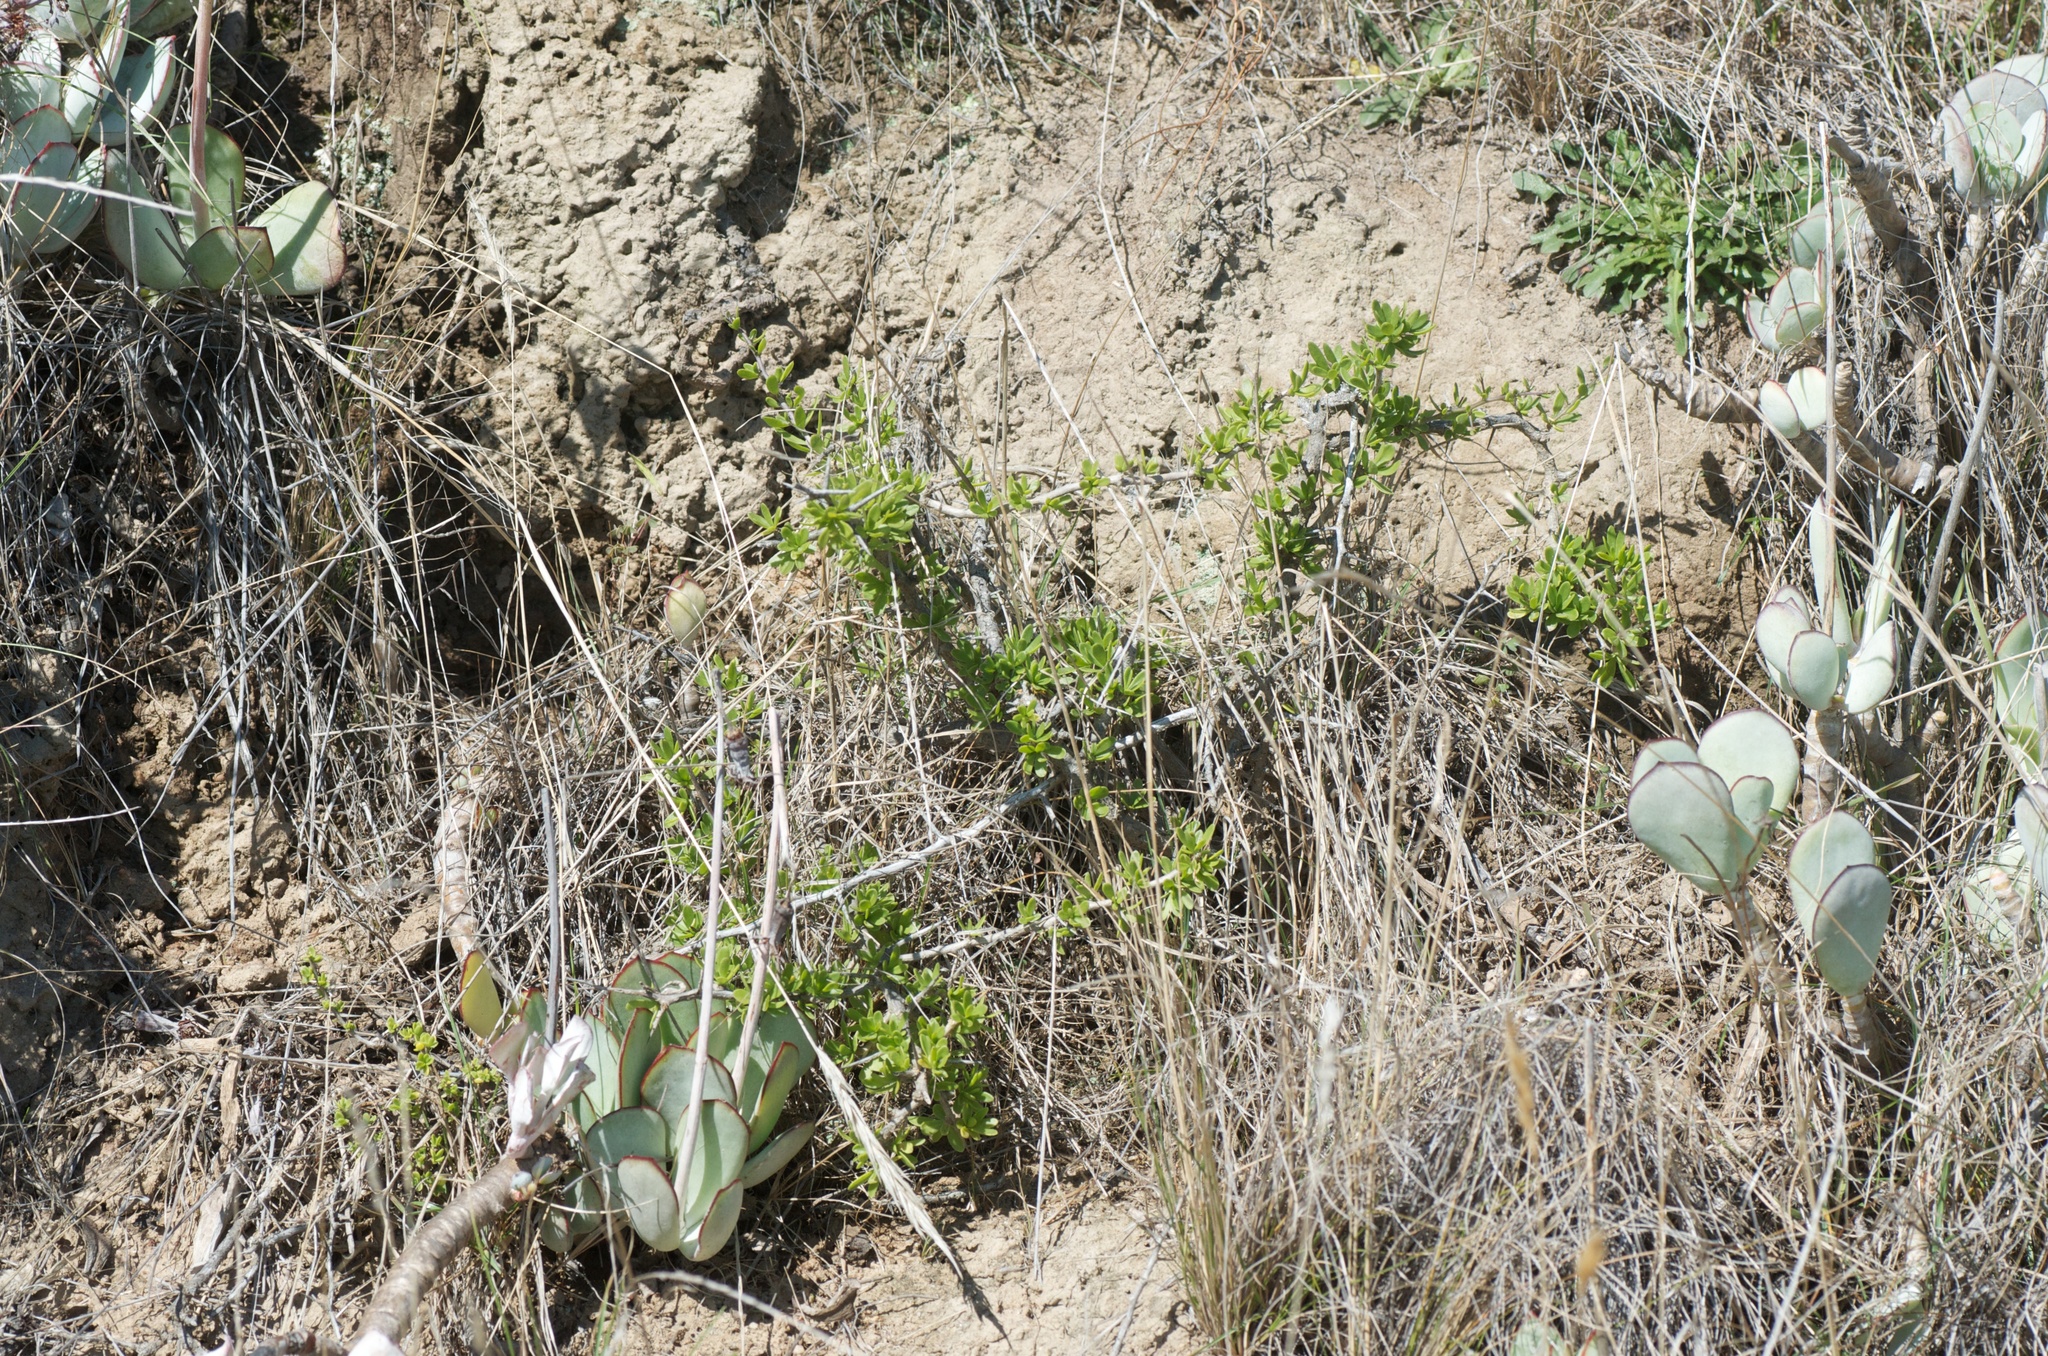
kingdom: Plantae
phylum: Tracheophyta
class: Magnoliopsida
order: Solanales
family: Solanaceae
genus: Lycium
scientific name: Lycium ferocissimum
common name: African boxthorn
